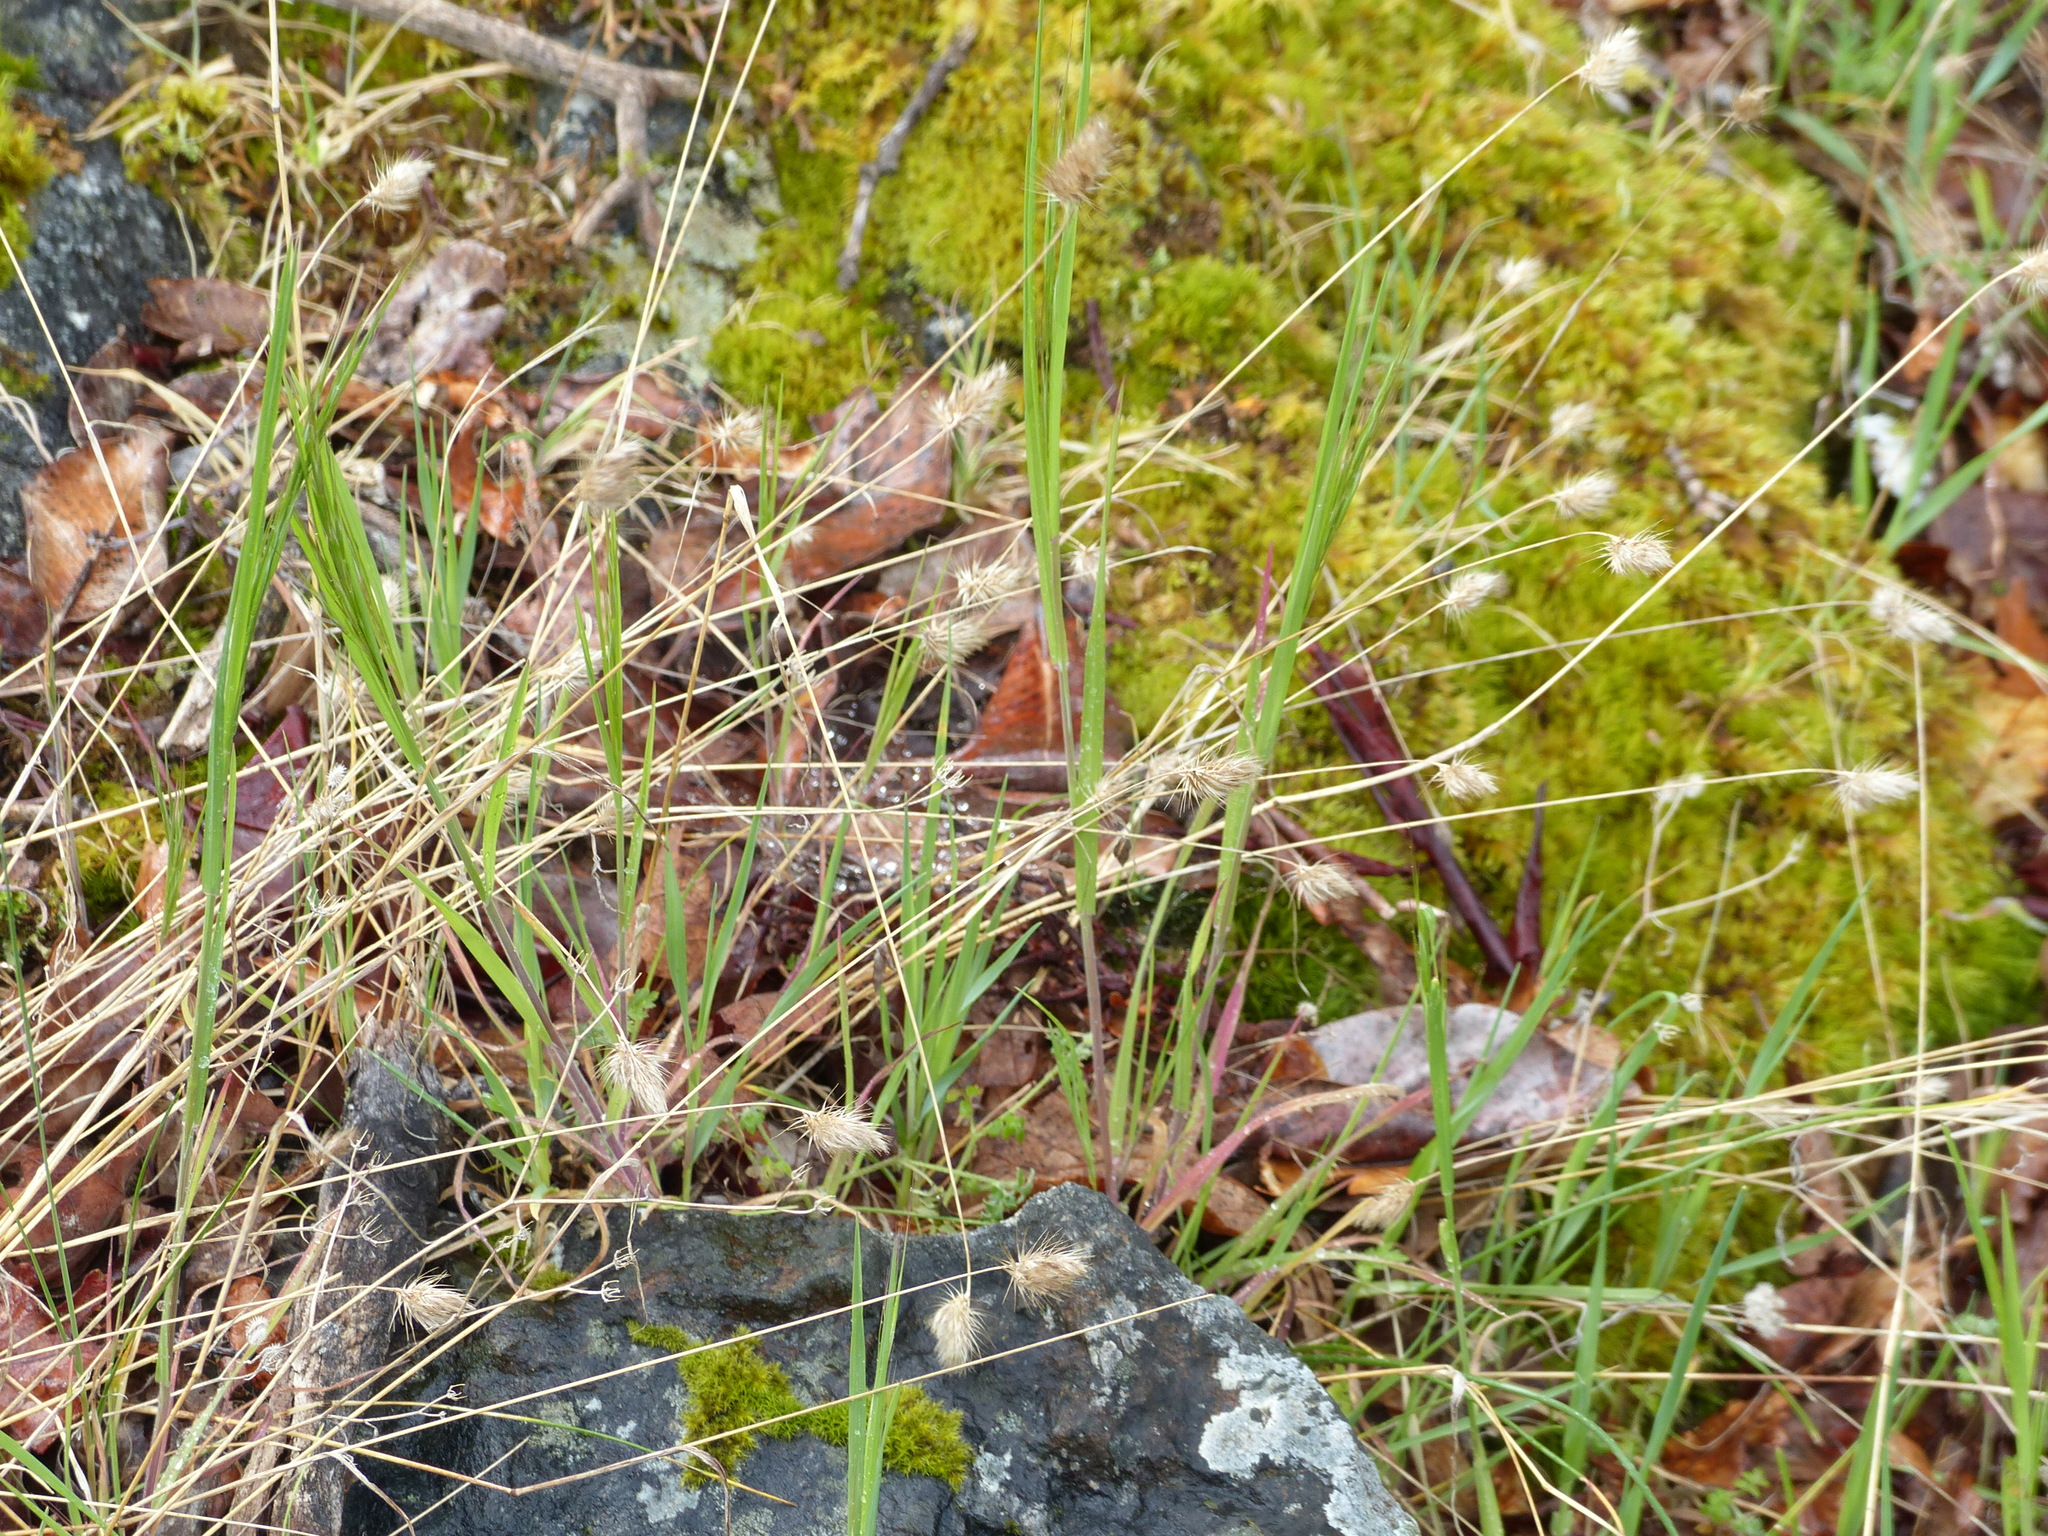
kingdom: Plantae
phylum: Tracheophyta
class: Liliopsida
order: Poales
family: Poaceae
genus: Cynosurus
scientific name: Cynosurus echinatus
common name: Rough dog's-tail
